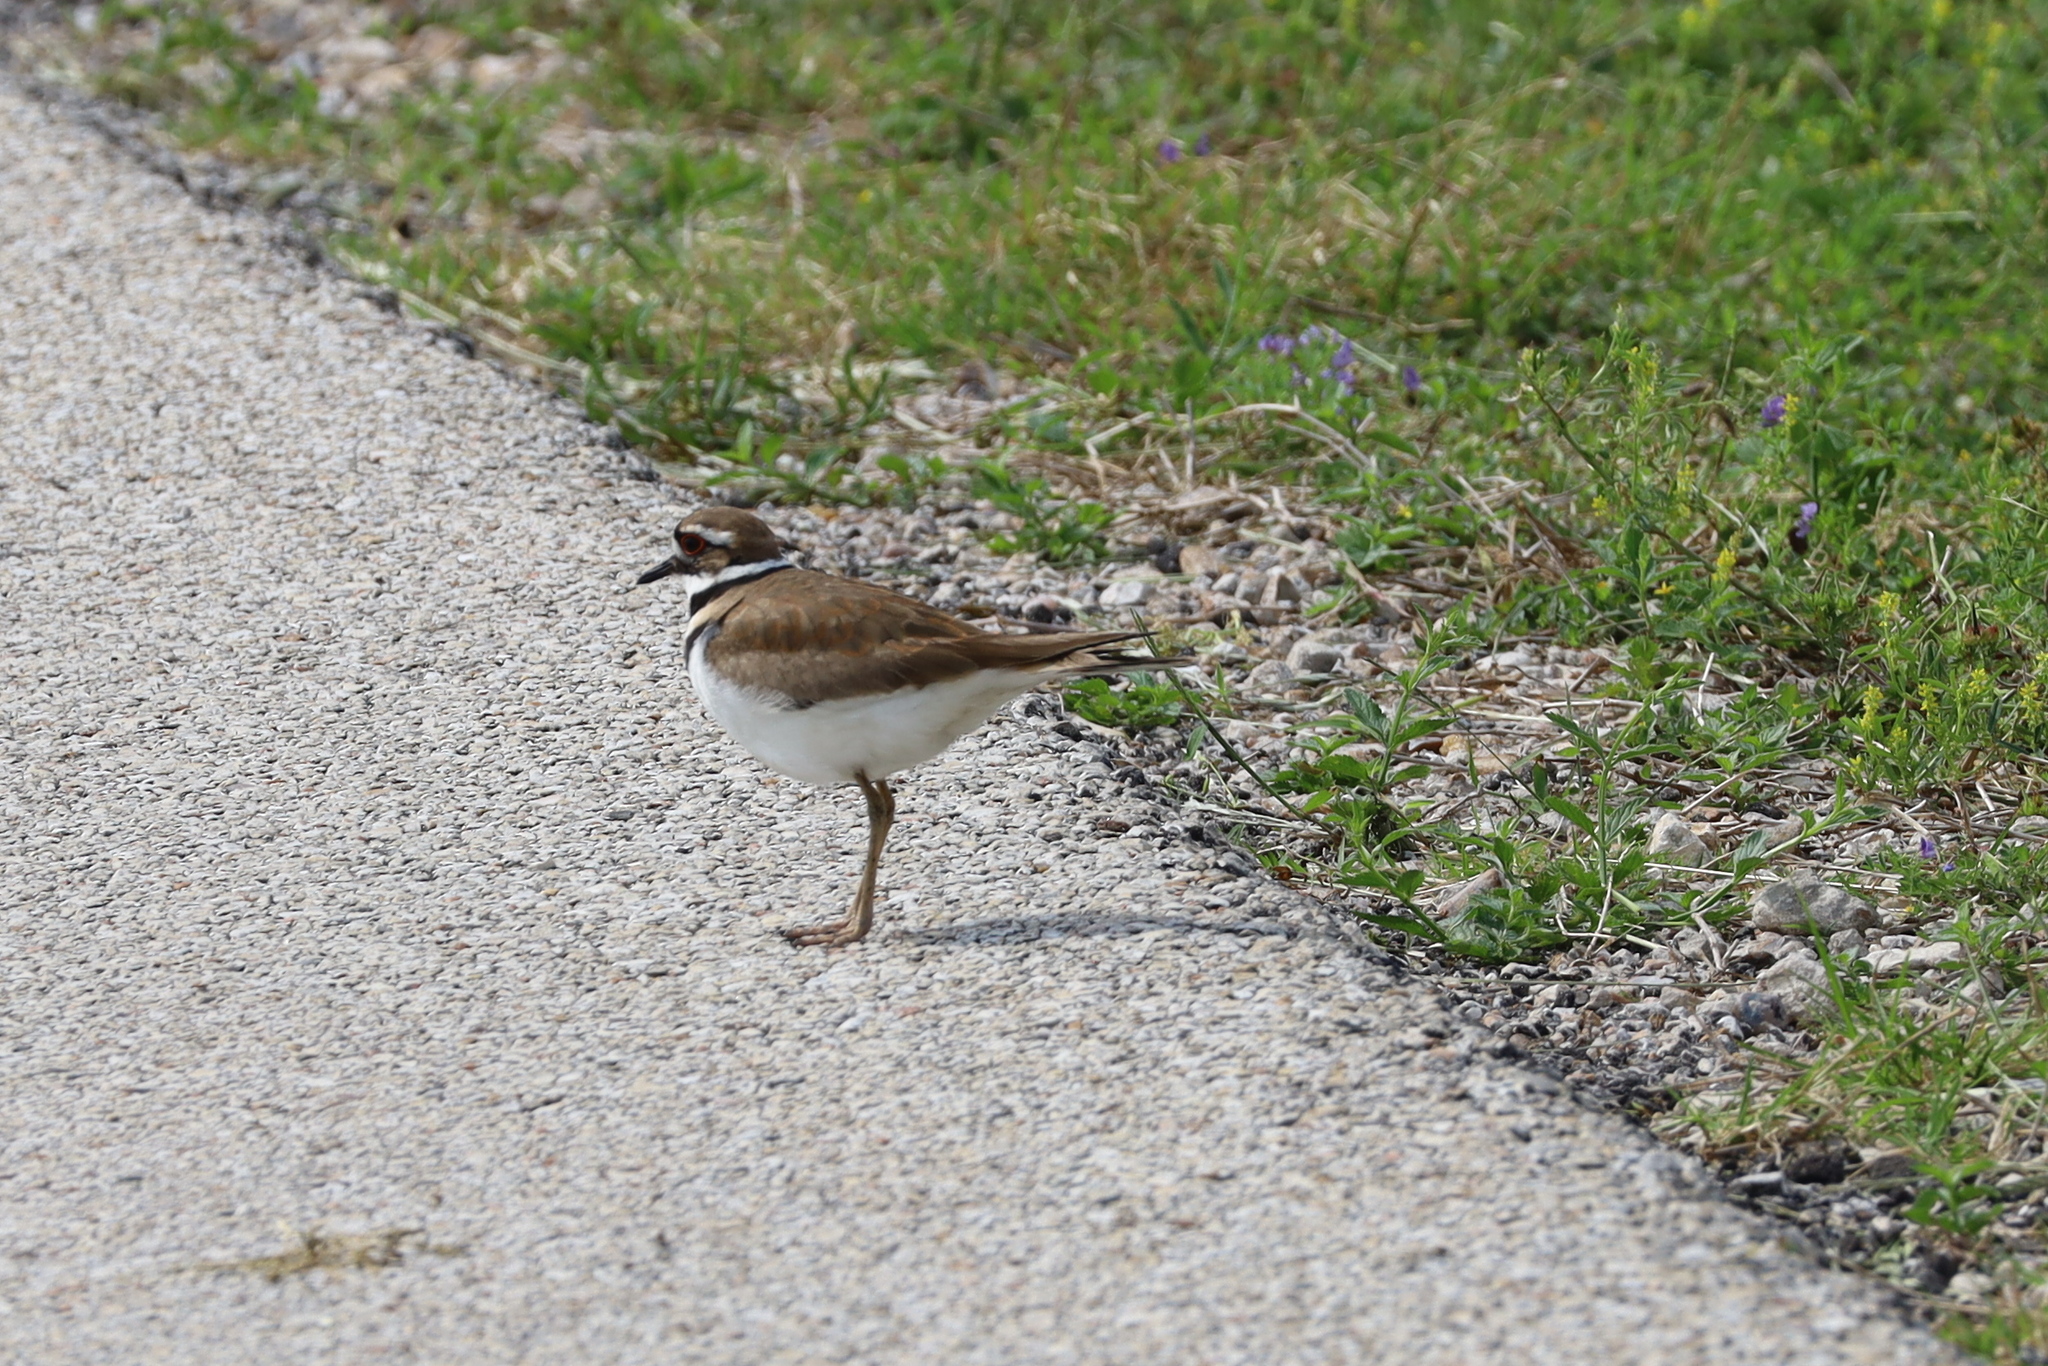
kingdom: Animalia
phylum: Chordata
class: Aves
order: Charadriiformes
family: Charadriidae
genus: Charadrius
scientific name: Charadrius vociferus
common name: Killdeer
